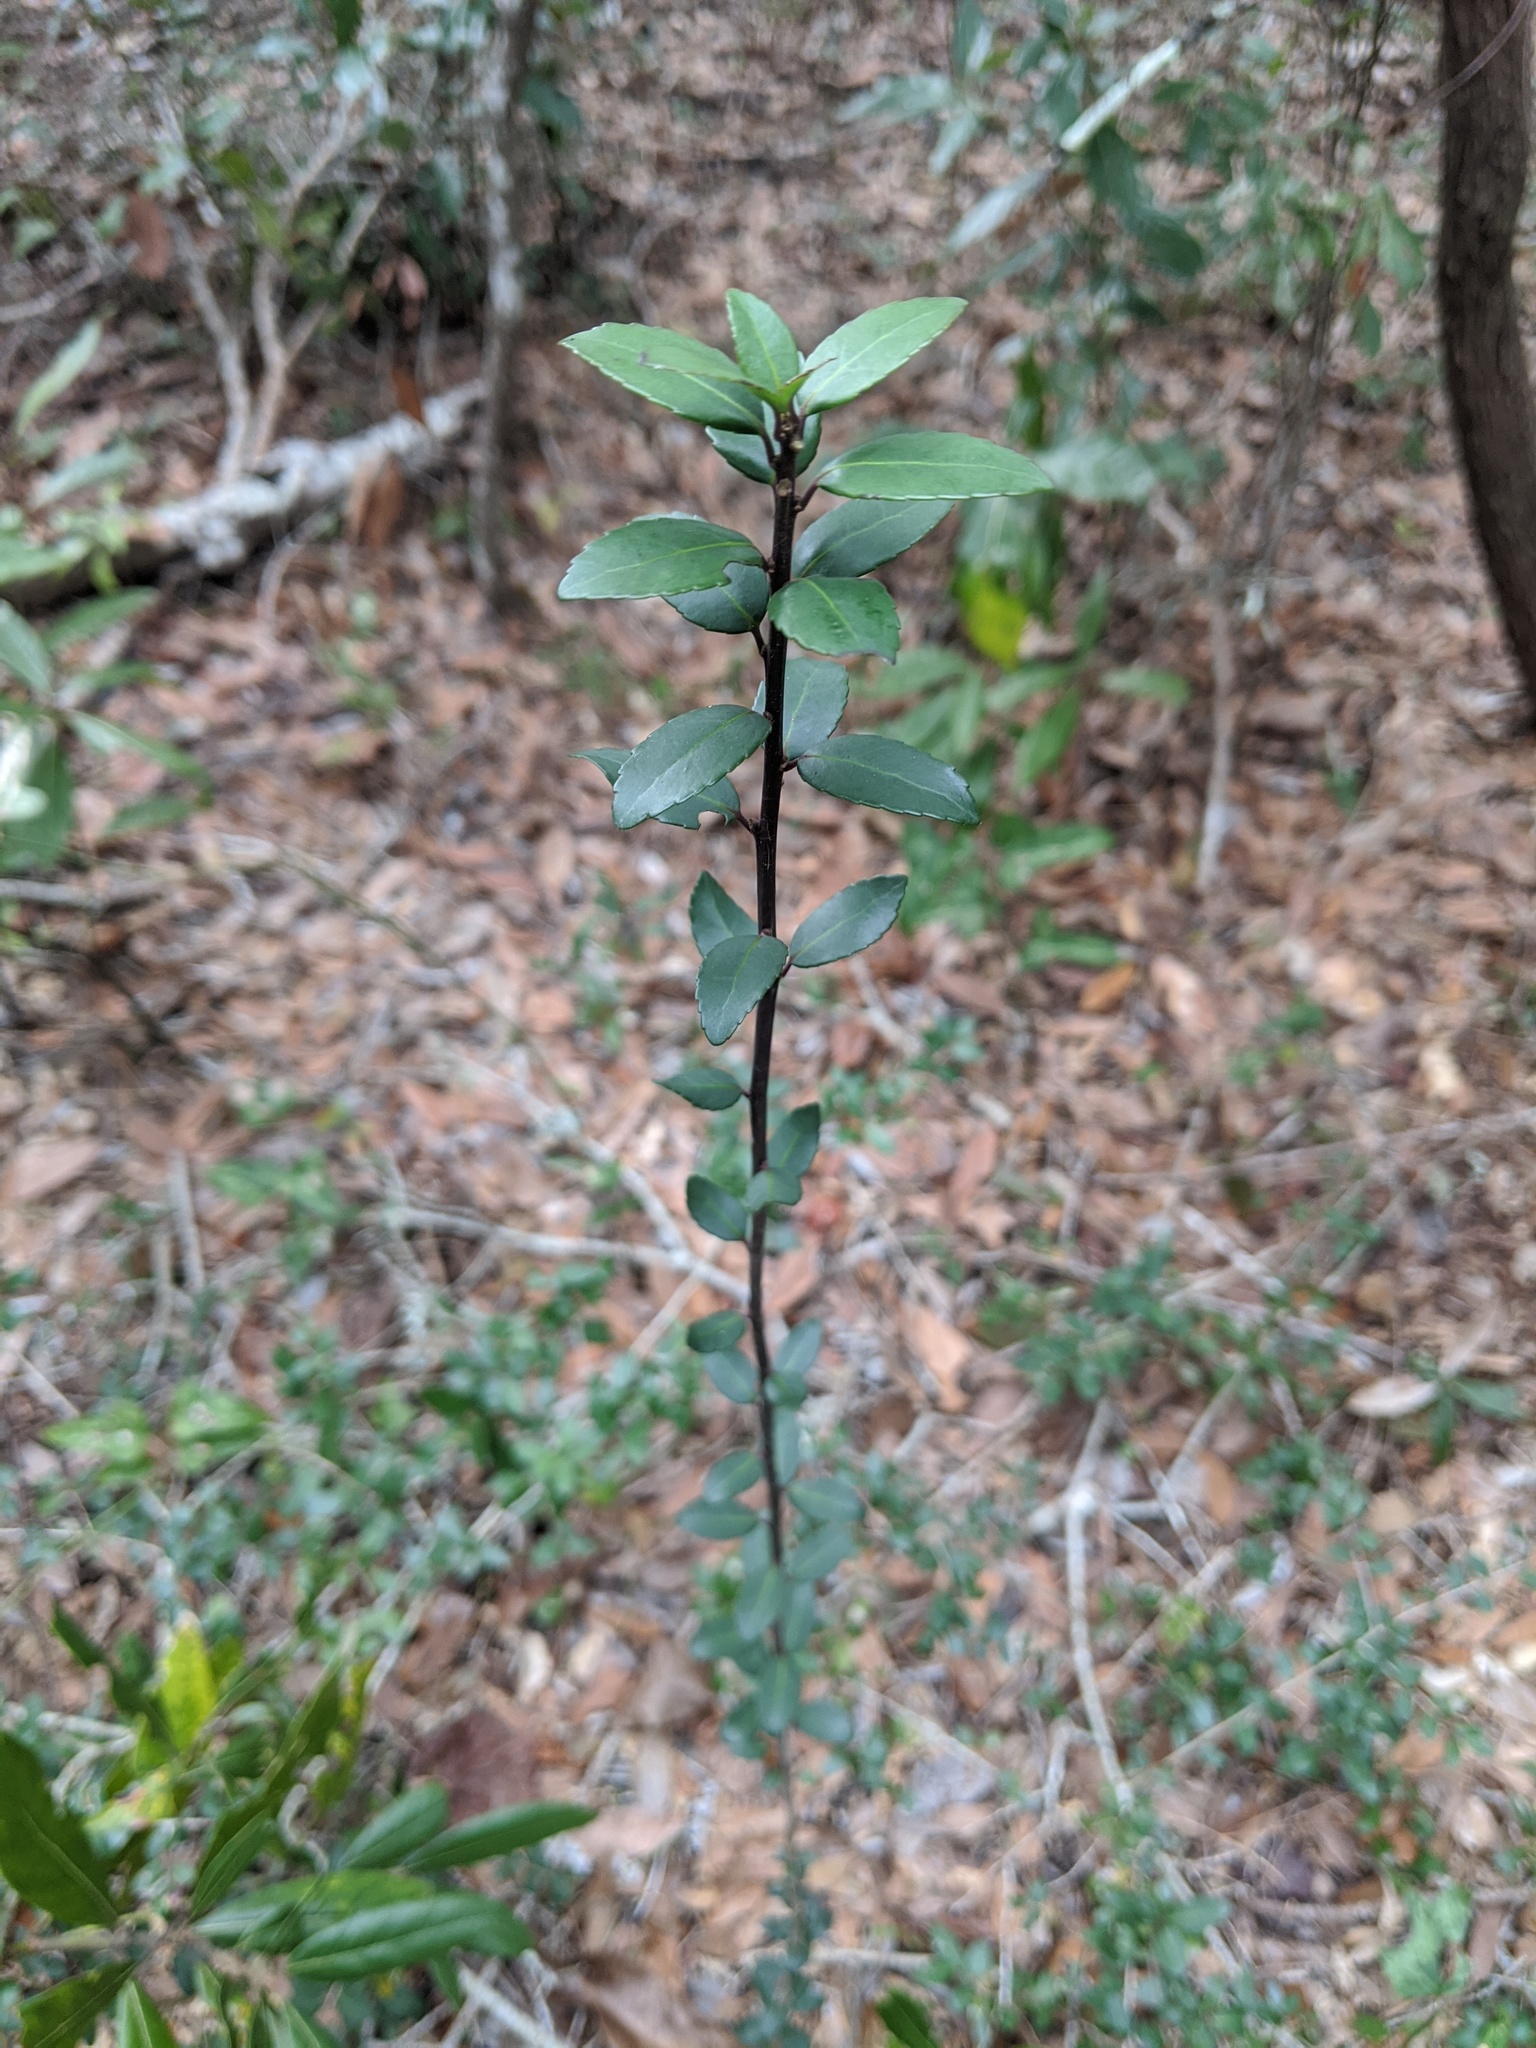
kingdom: Plantae
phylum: Tracheophyta
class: Magnoliopsida
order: Aquifoliales
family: Aquifoliaceae
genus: Ilex
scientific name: Ilex vomitoria
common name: Yaupon holly
